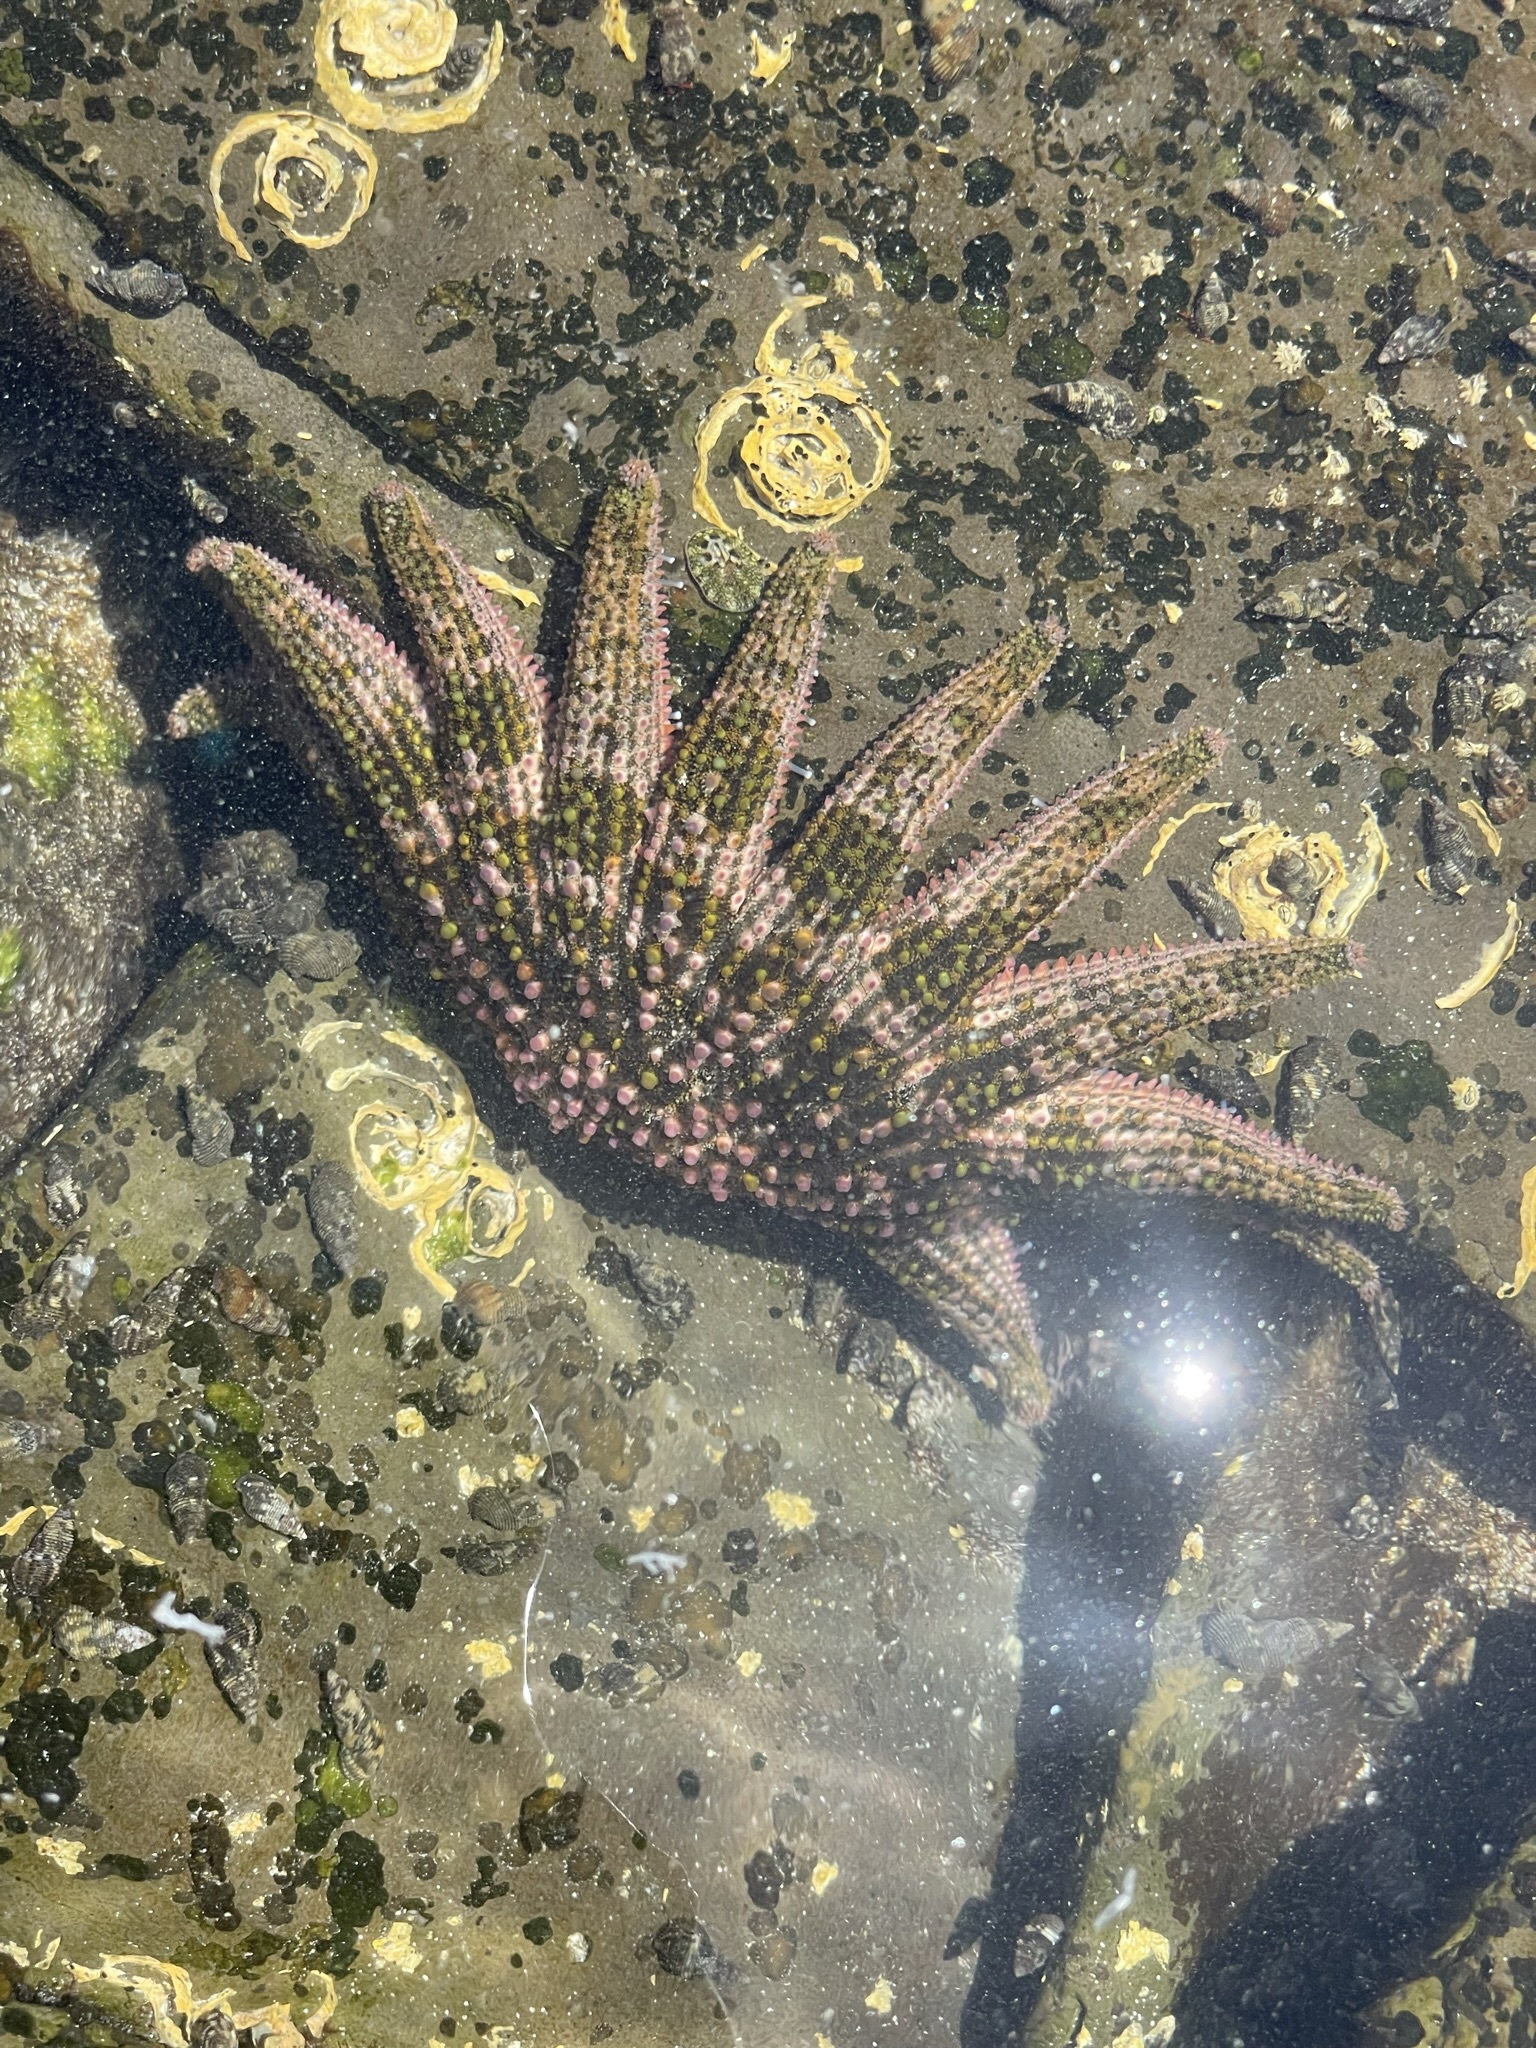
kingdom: Animalia
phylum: Echinodermata
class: Asteroidea
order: Forcipulatida
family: Heliasteridae
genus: Heliaster
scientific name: Heliaster kubiniji
